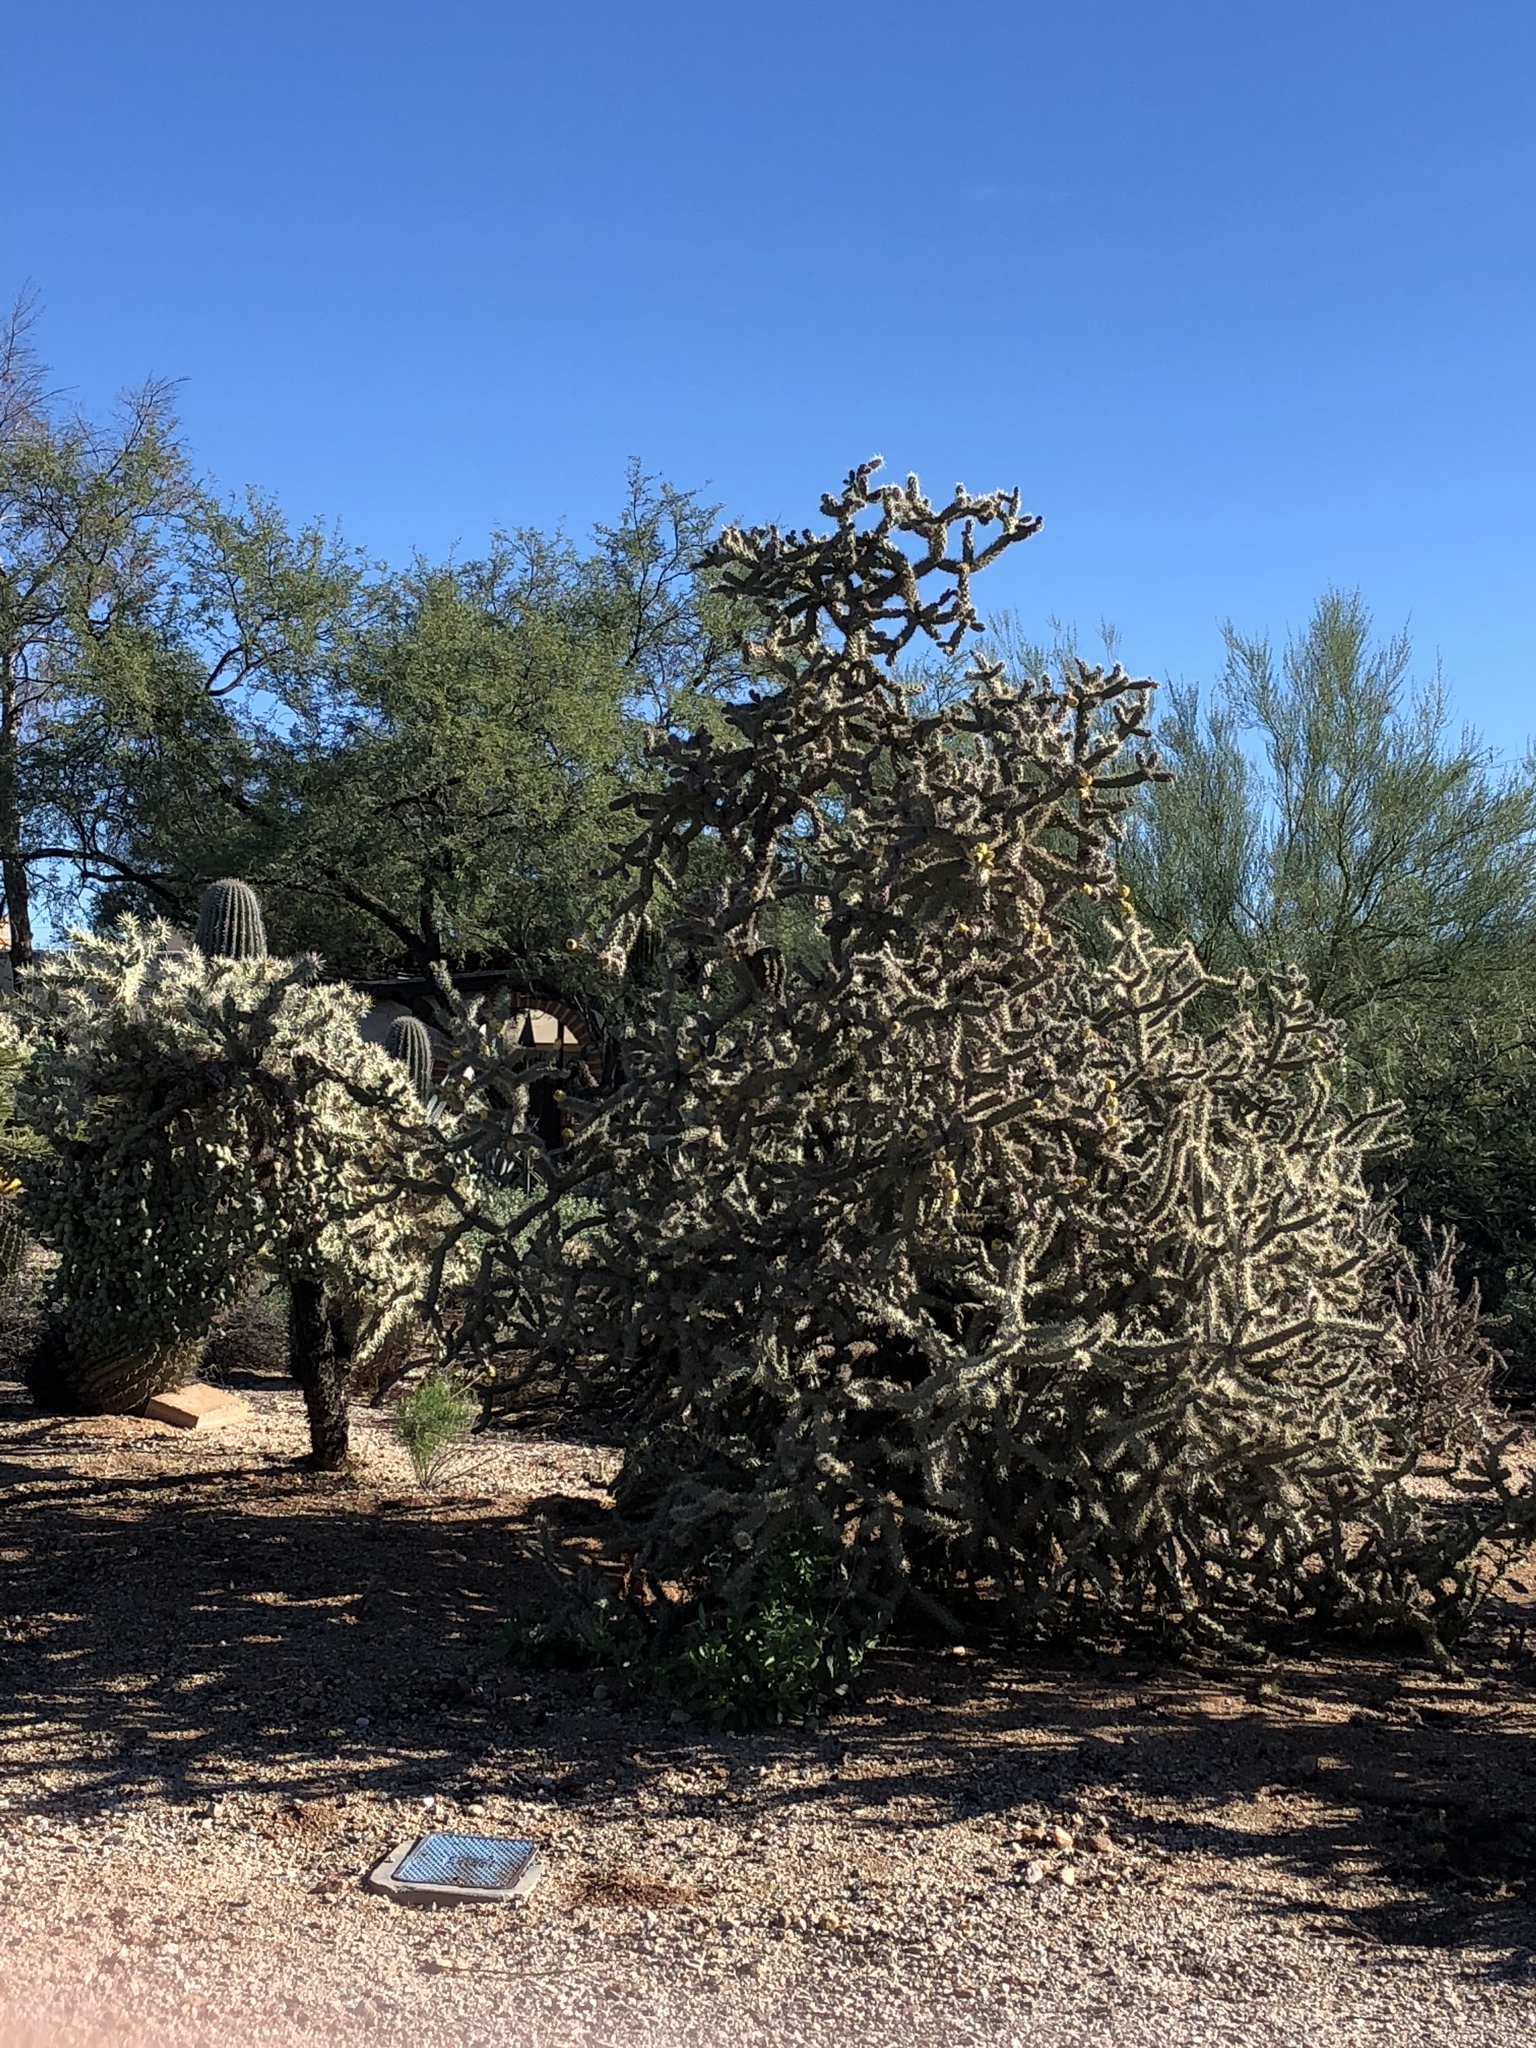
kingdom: Plantae
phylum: Tracheophyta
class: Magnoliopsida
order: Caryophyllales
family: Cactaceae
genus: Cylindropuntia
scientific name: Cylindropuntia thurberi
